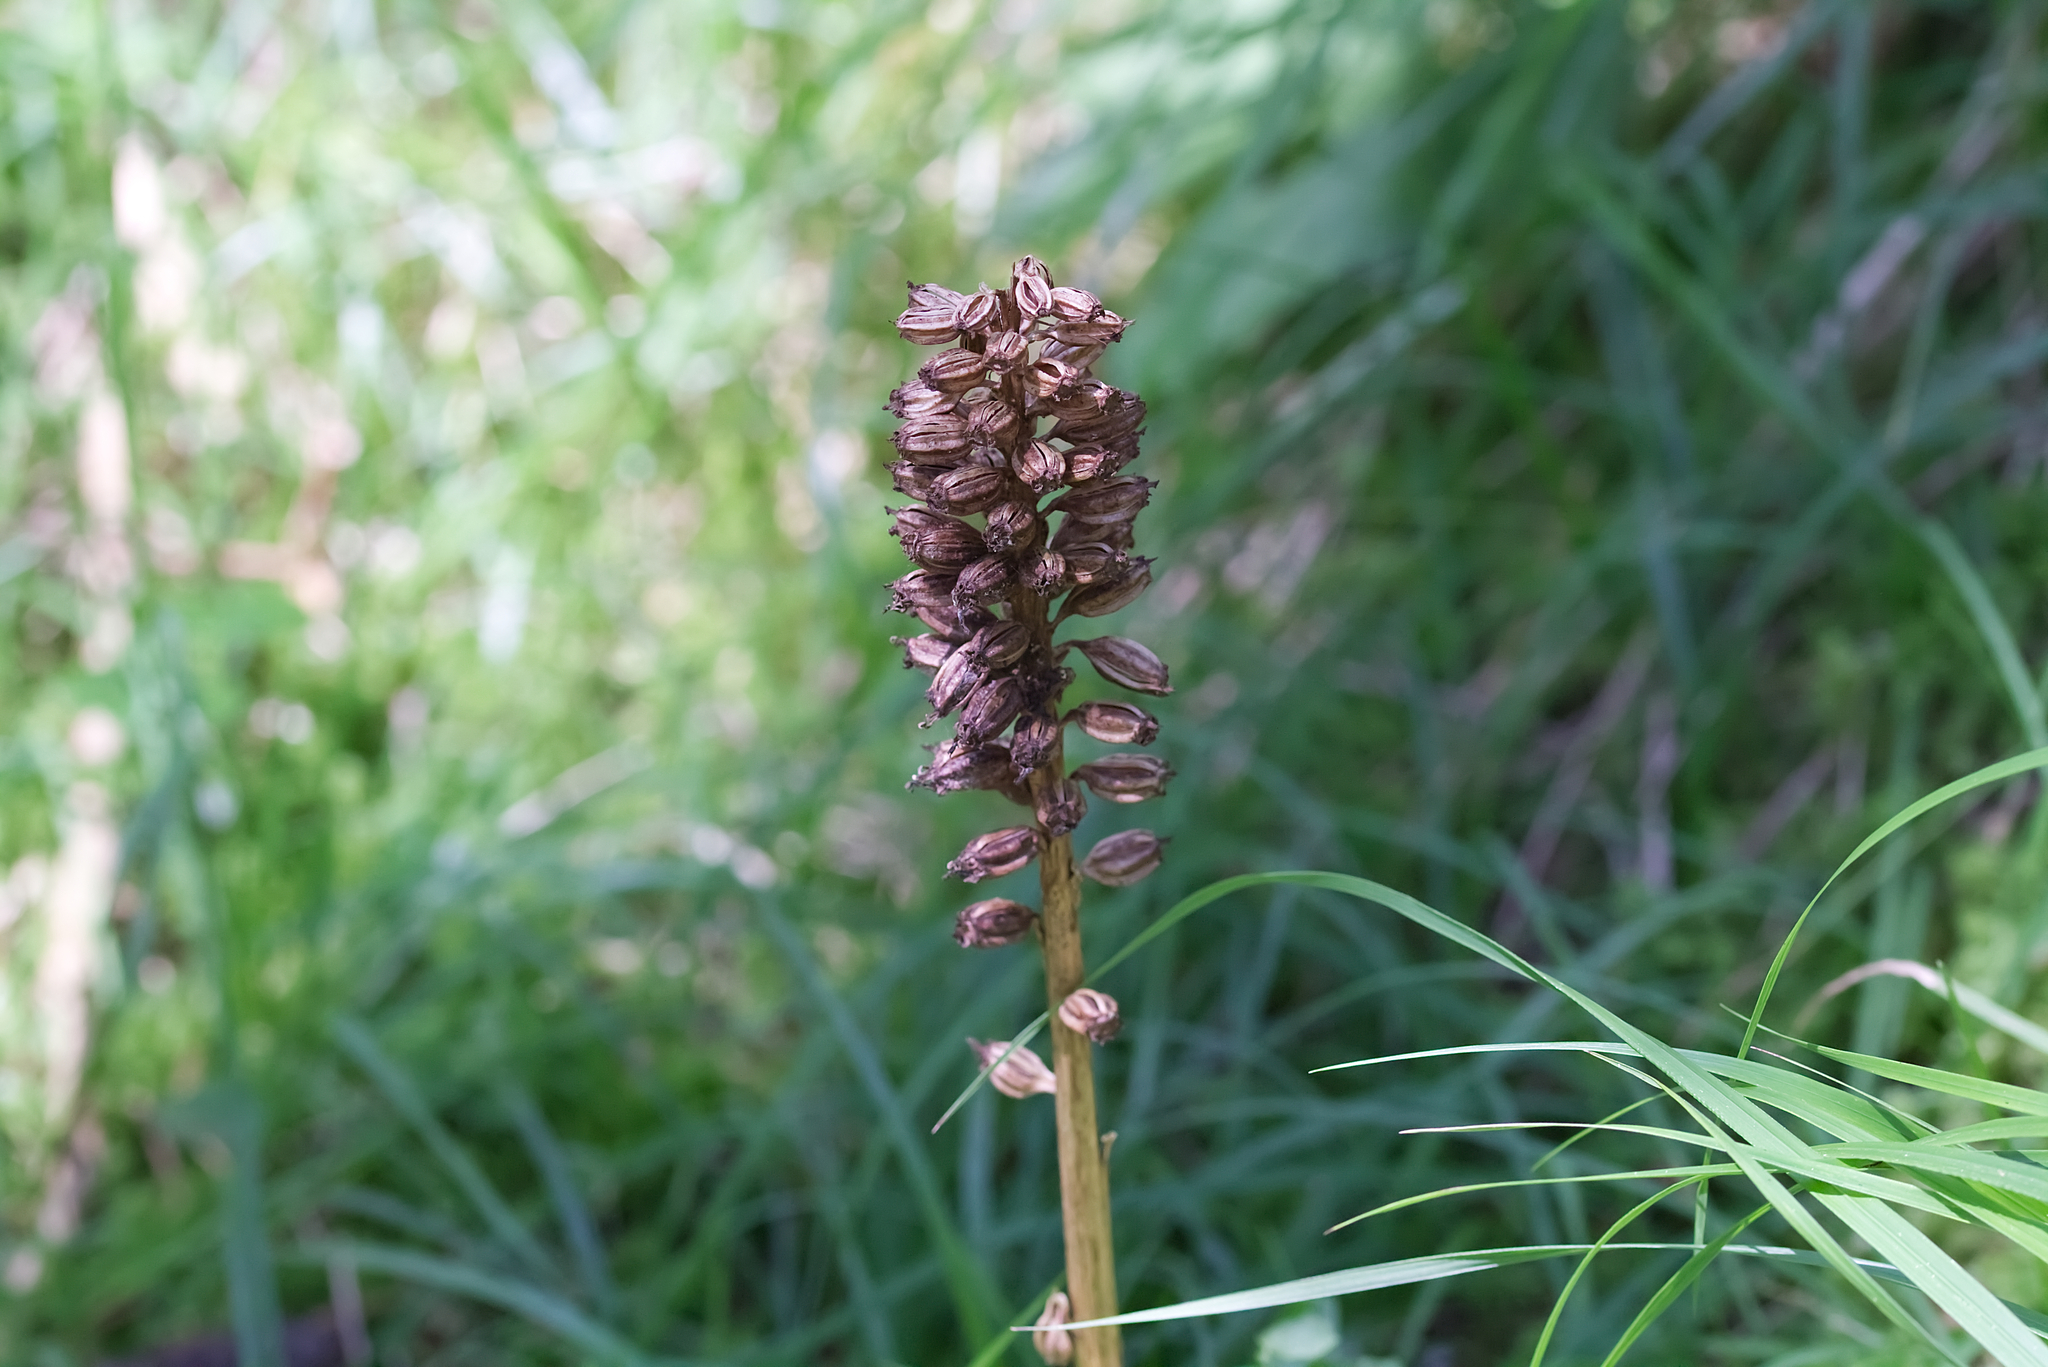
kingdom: Plantae
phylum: Tracheophyta
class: Liliopsida
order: Asparagales
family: Orchidaceae
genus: Neottia
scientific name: Neottia nidus-avis
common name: Bird's-nest orchid
